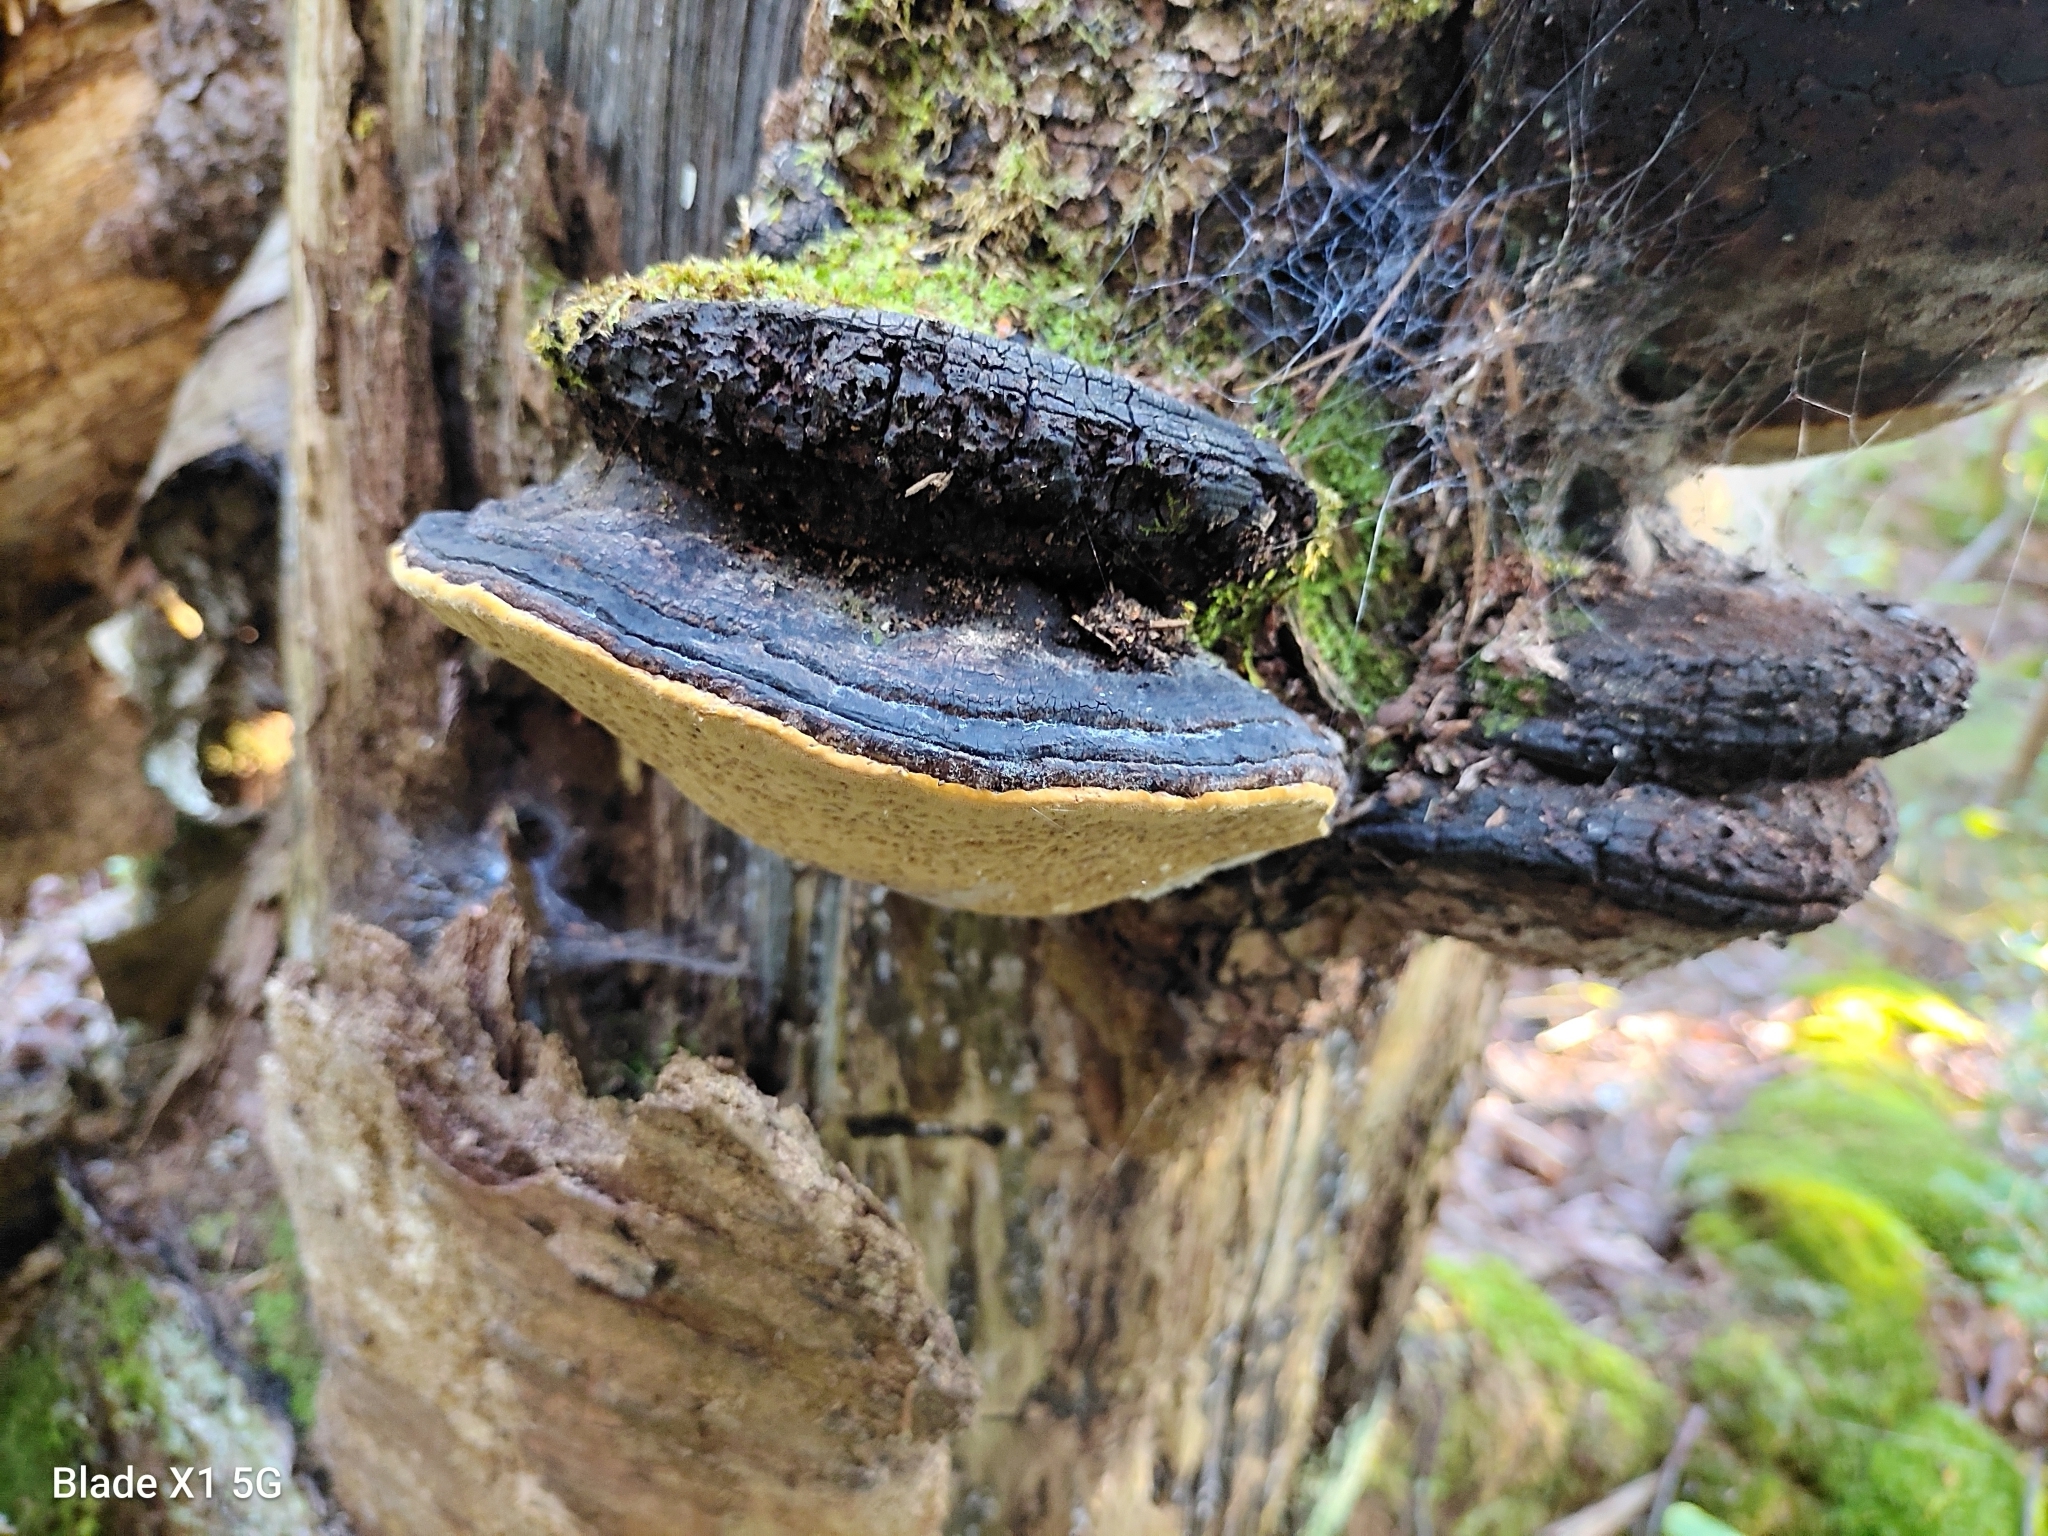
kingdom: Fungi
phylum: Basidiomycota
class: Agaricomycetes
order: Hymenochaetales
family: Hymenochaetaceae
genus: Phellinus
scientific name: Phellinus igniarius
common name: Willow bracket
